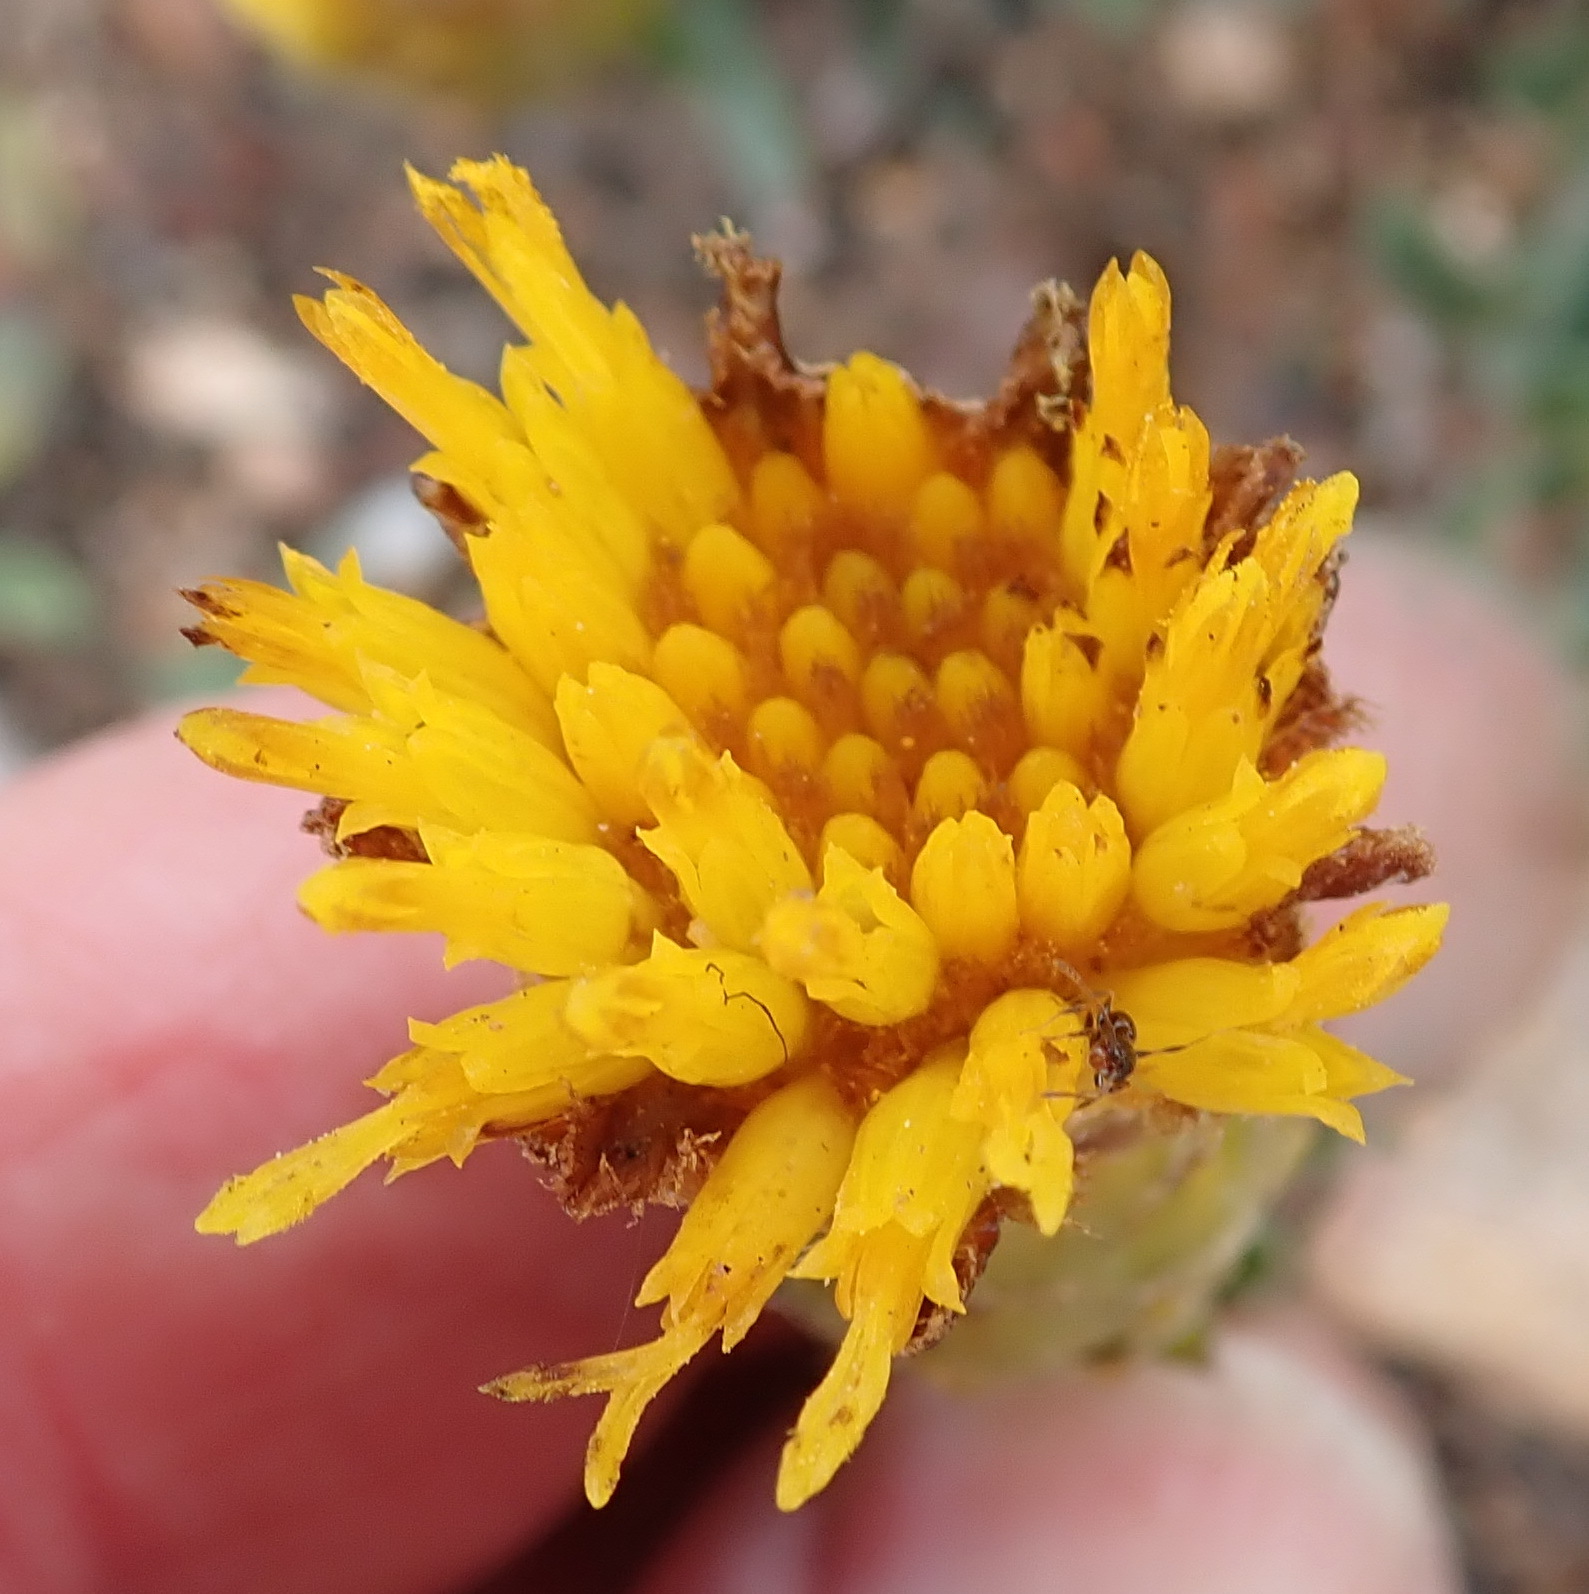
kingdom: Plantae
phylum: Tracheophyta
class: Magnoliopsida
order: Asterales
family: Asteraceae
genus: Pteronia
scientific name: Pteronia elongata
